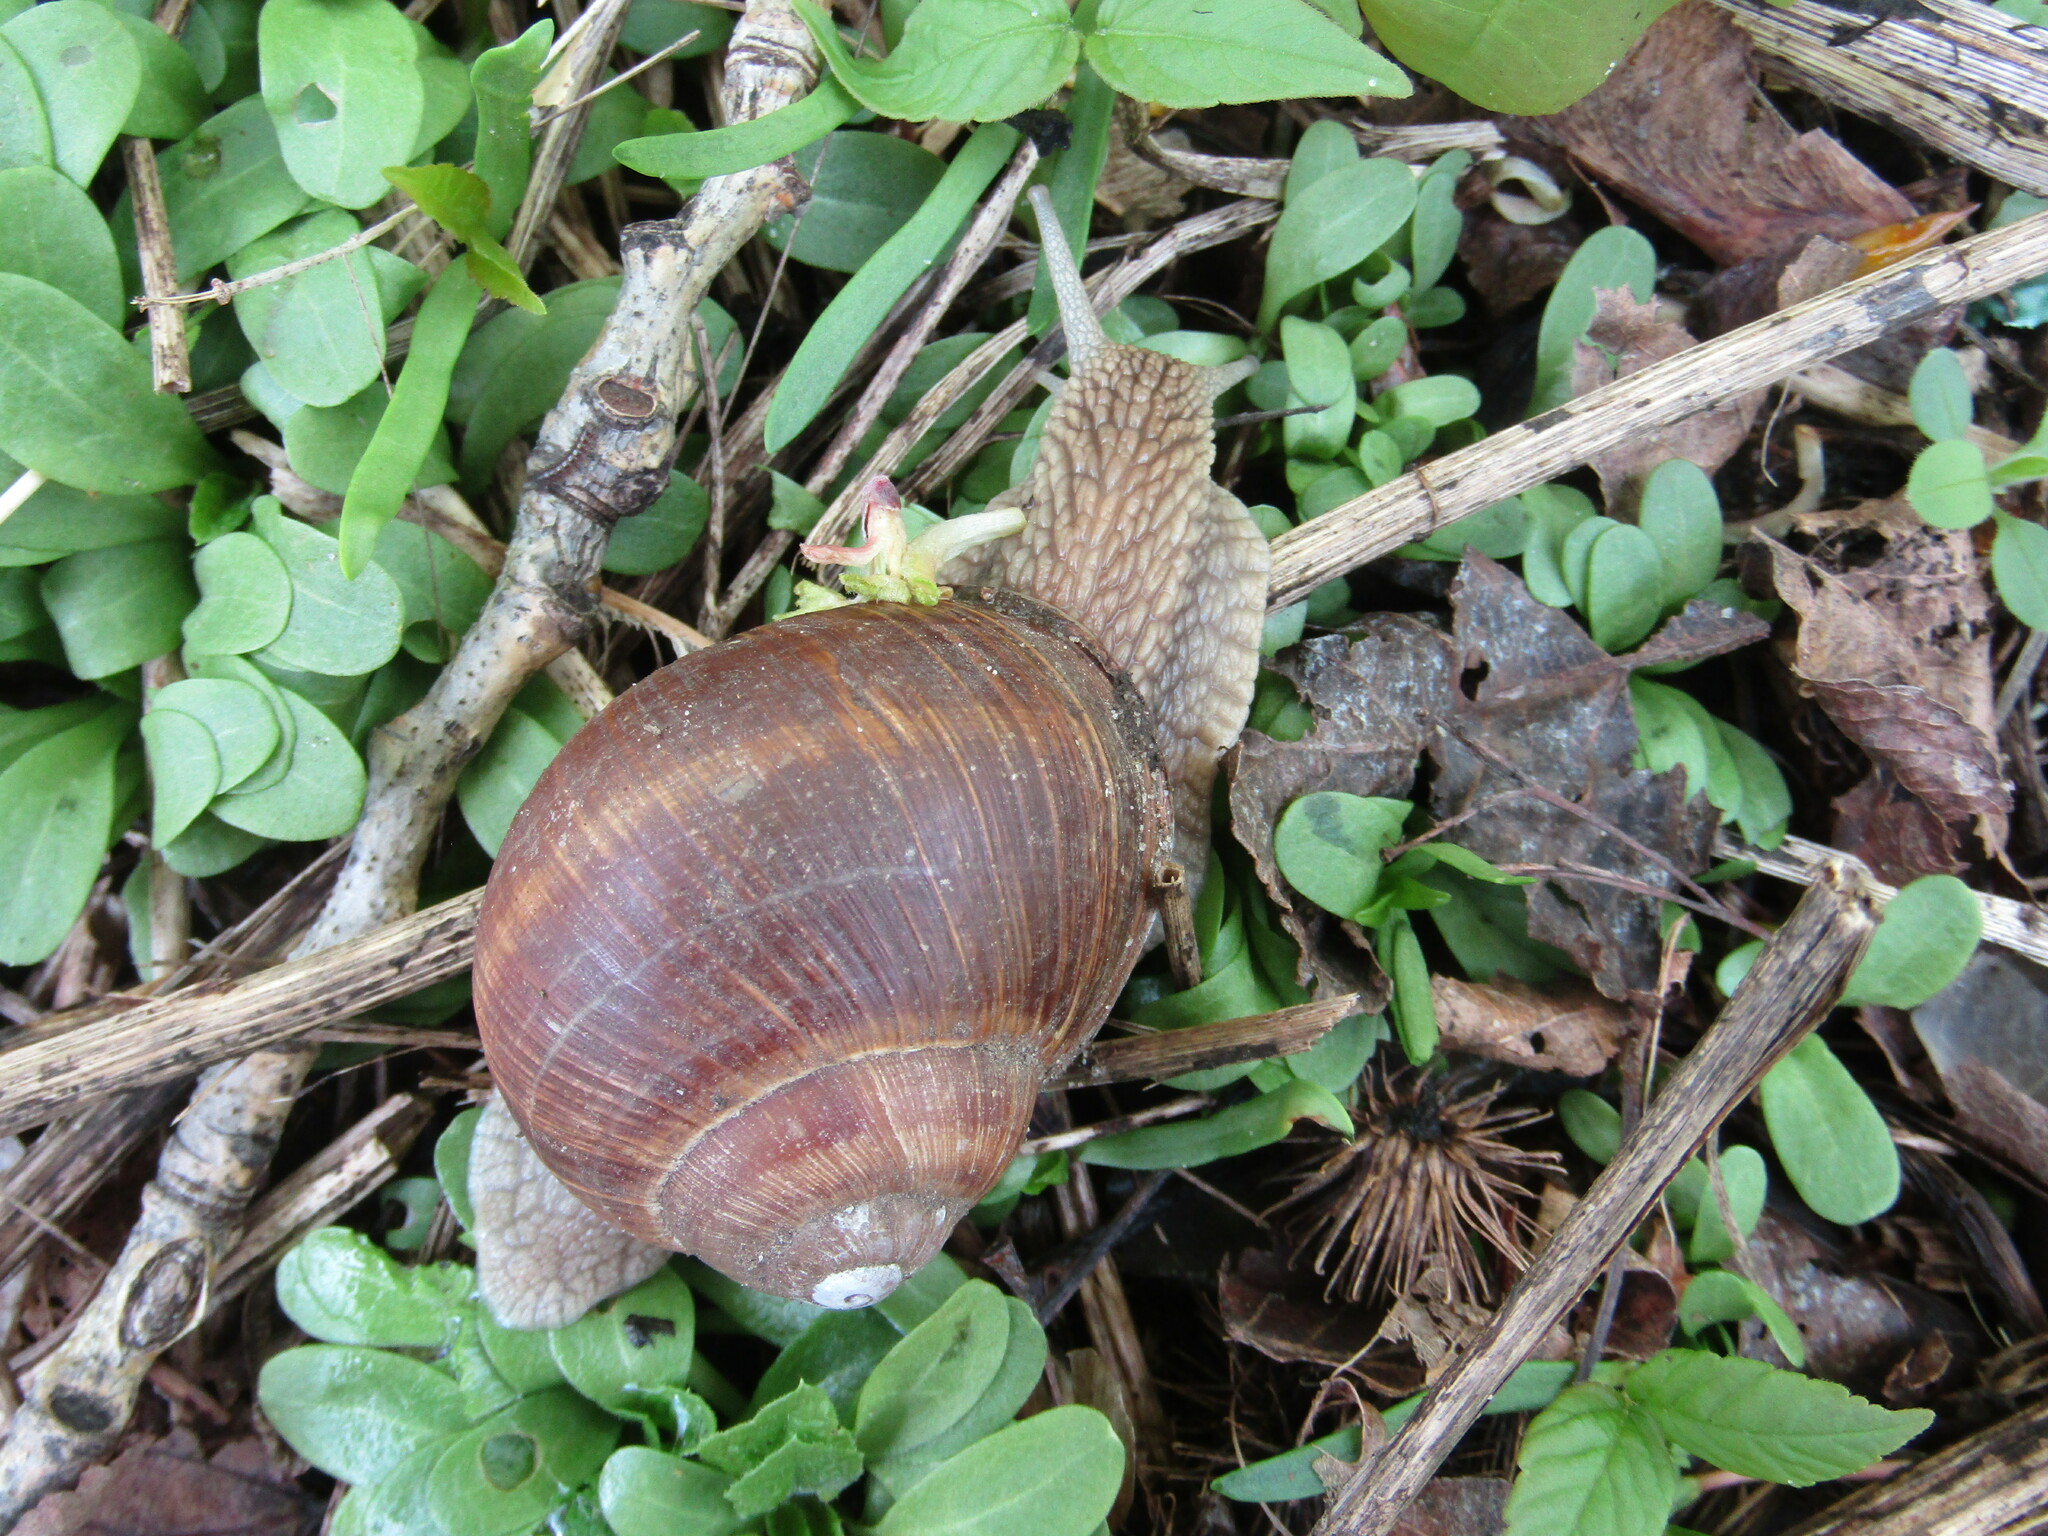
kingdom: Animalia
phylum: Mollusca
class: Gastropoda
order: Stylommatophora
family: Helicidae
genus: Helix
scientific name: Helix pomatia
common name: Roman snail
